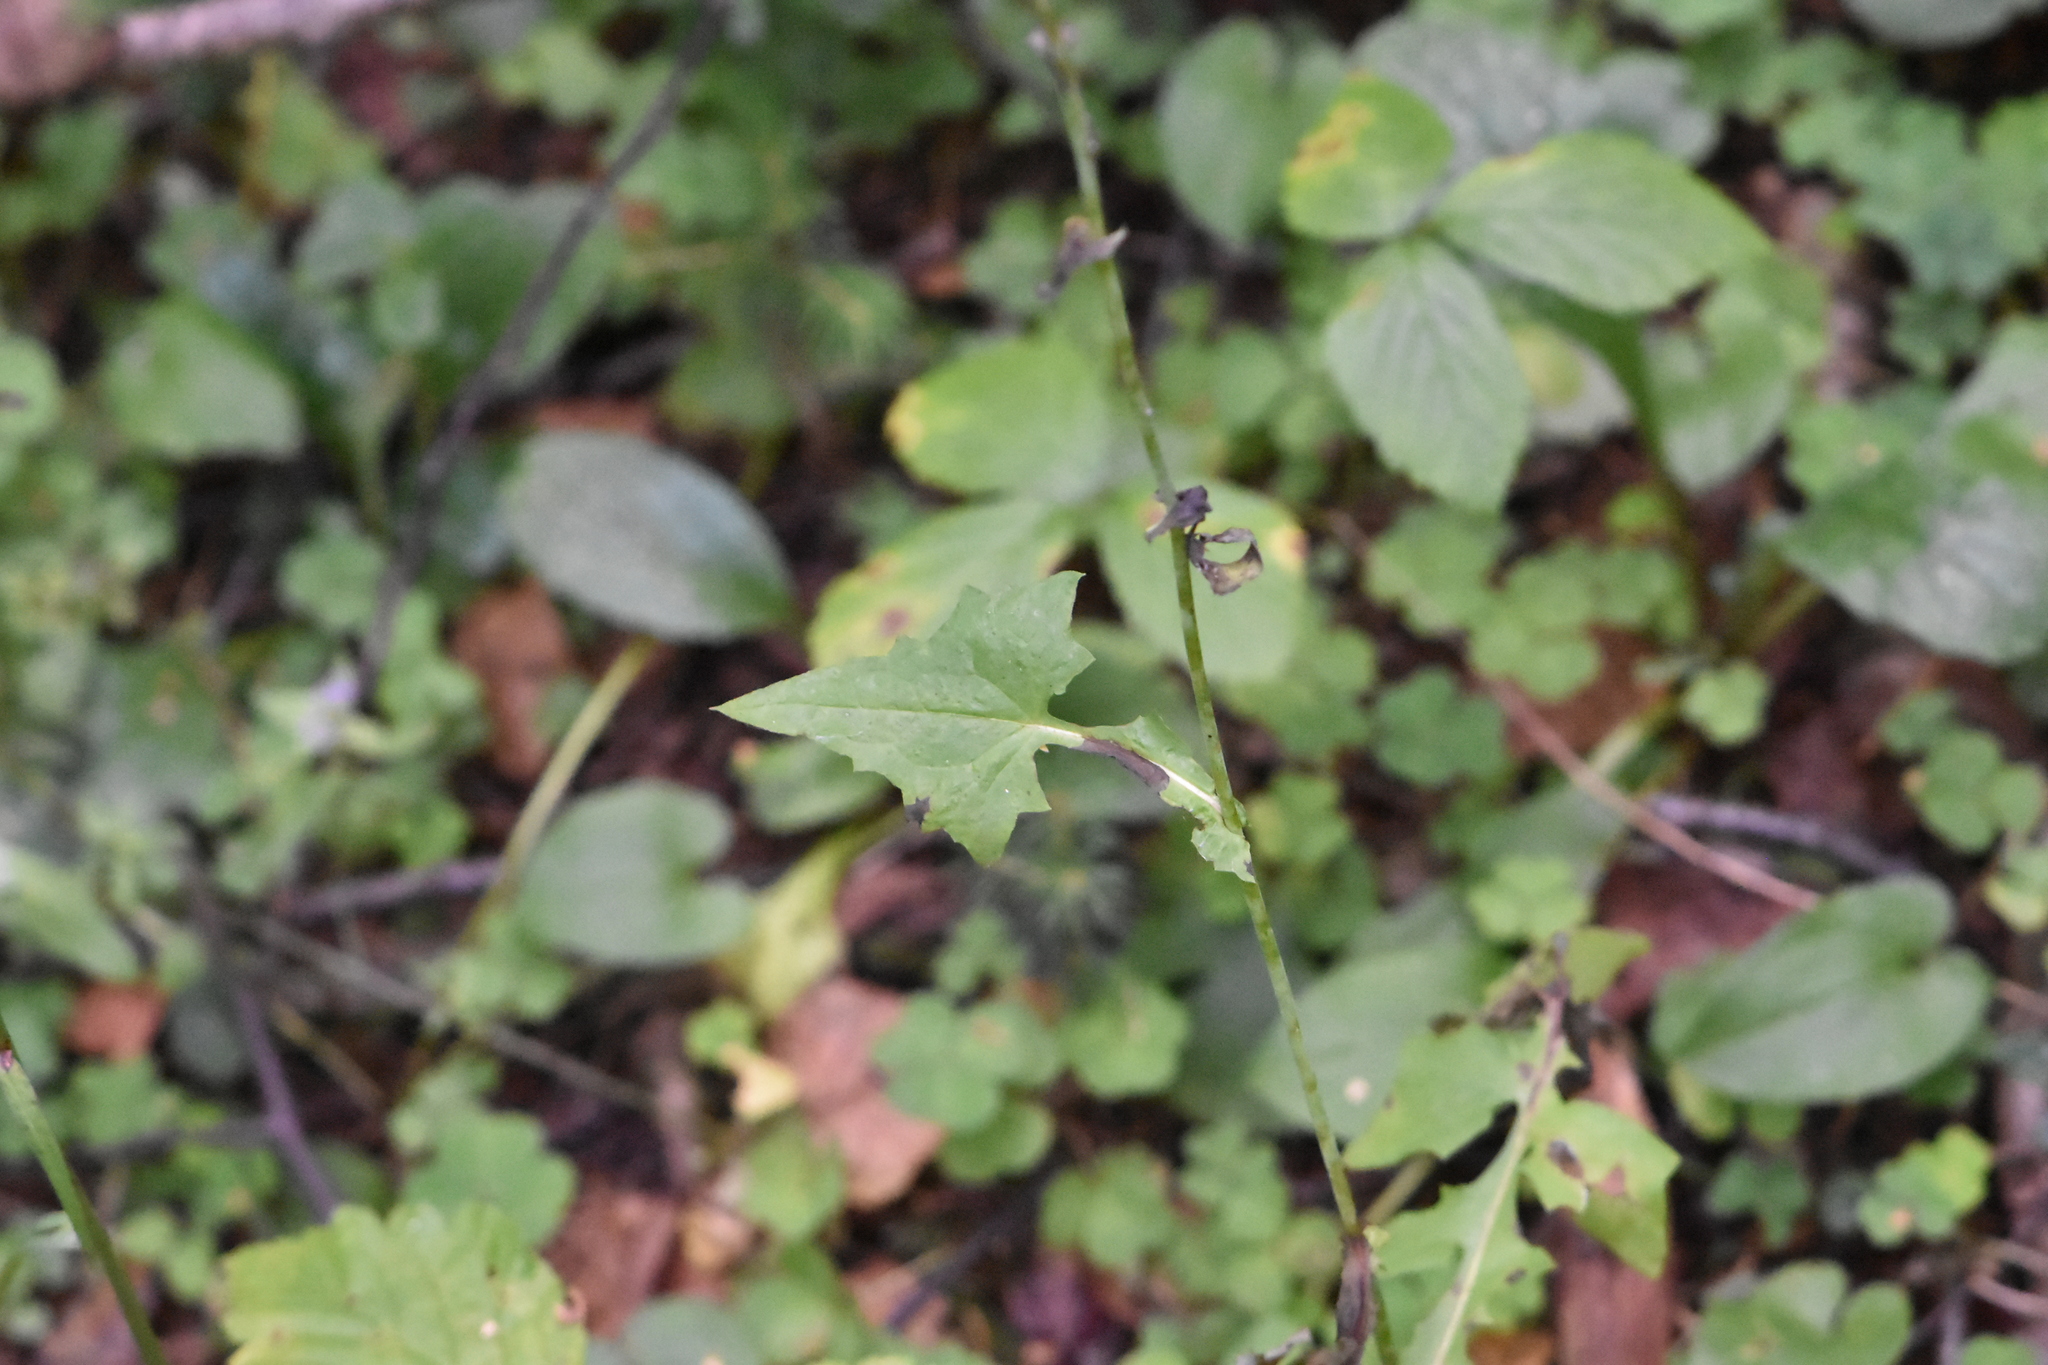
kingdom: Plantae
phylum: Tracheophyta
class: Magnoliopsida
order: Asterales
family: Asteraceae
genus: Mycelis
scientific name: Mycelis muralis
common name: Wall lettuce
